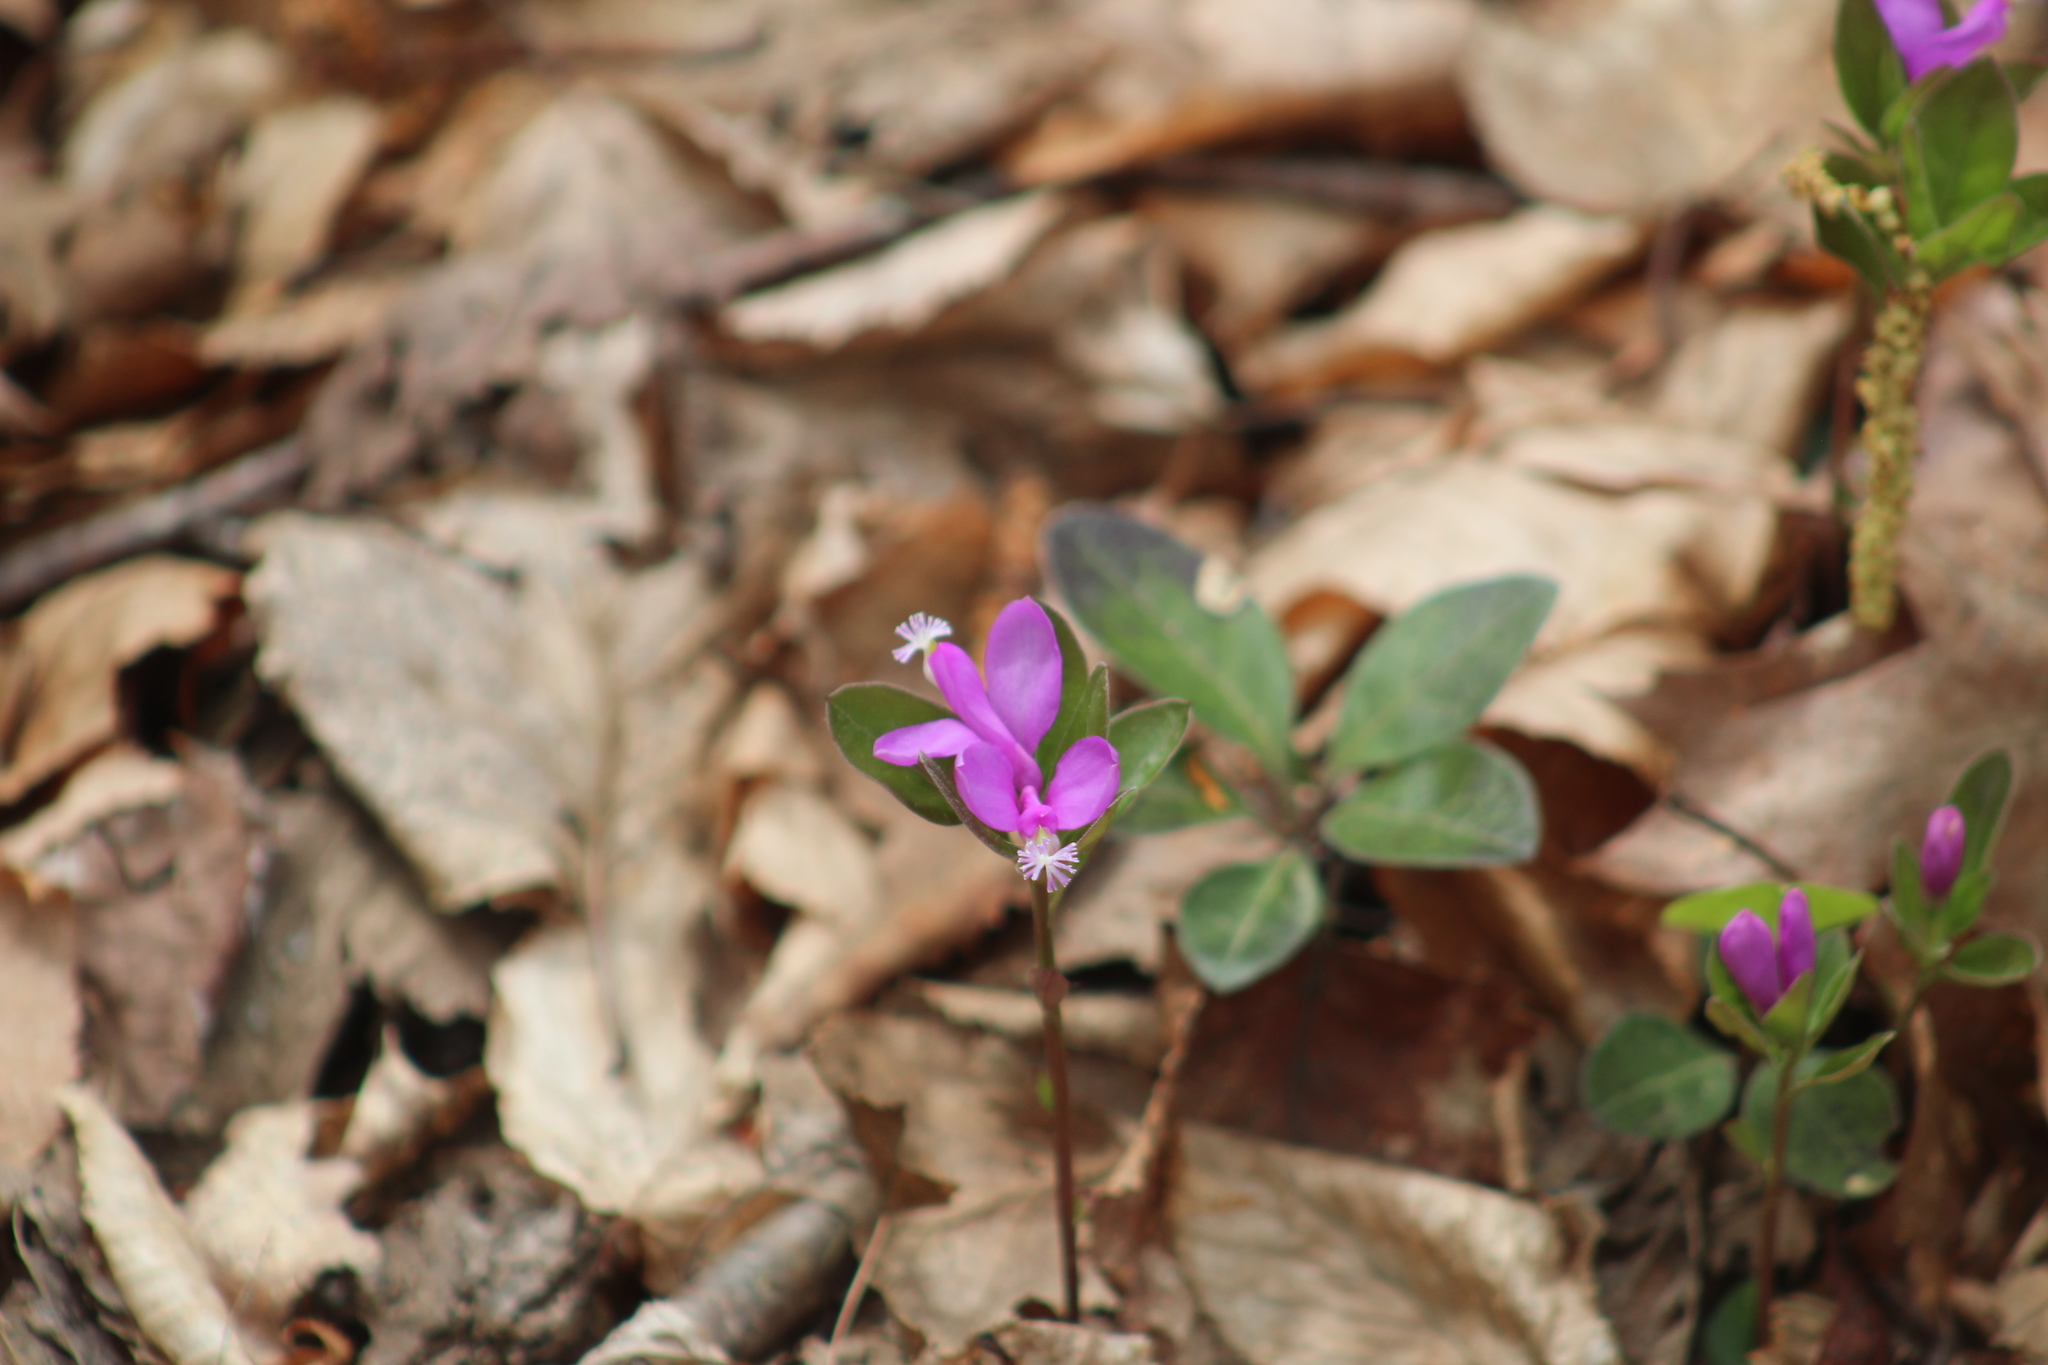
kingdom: Plantae
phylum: Tracheophyta
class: Magnoliopsida
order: Fabales
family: Polygalaceae
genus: Polygaloides
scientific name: Polygaloides paucifolia
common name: Bird-on-the-wing
